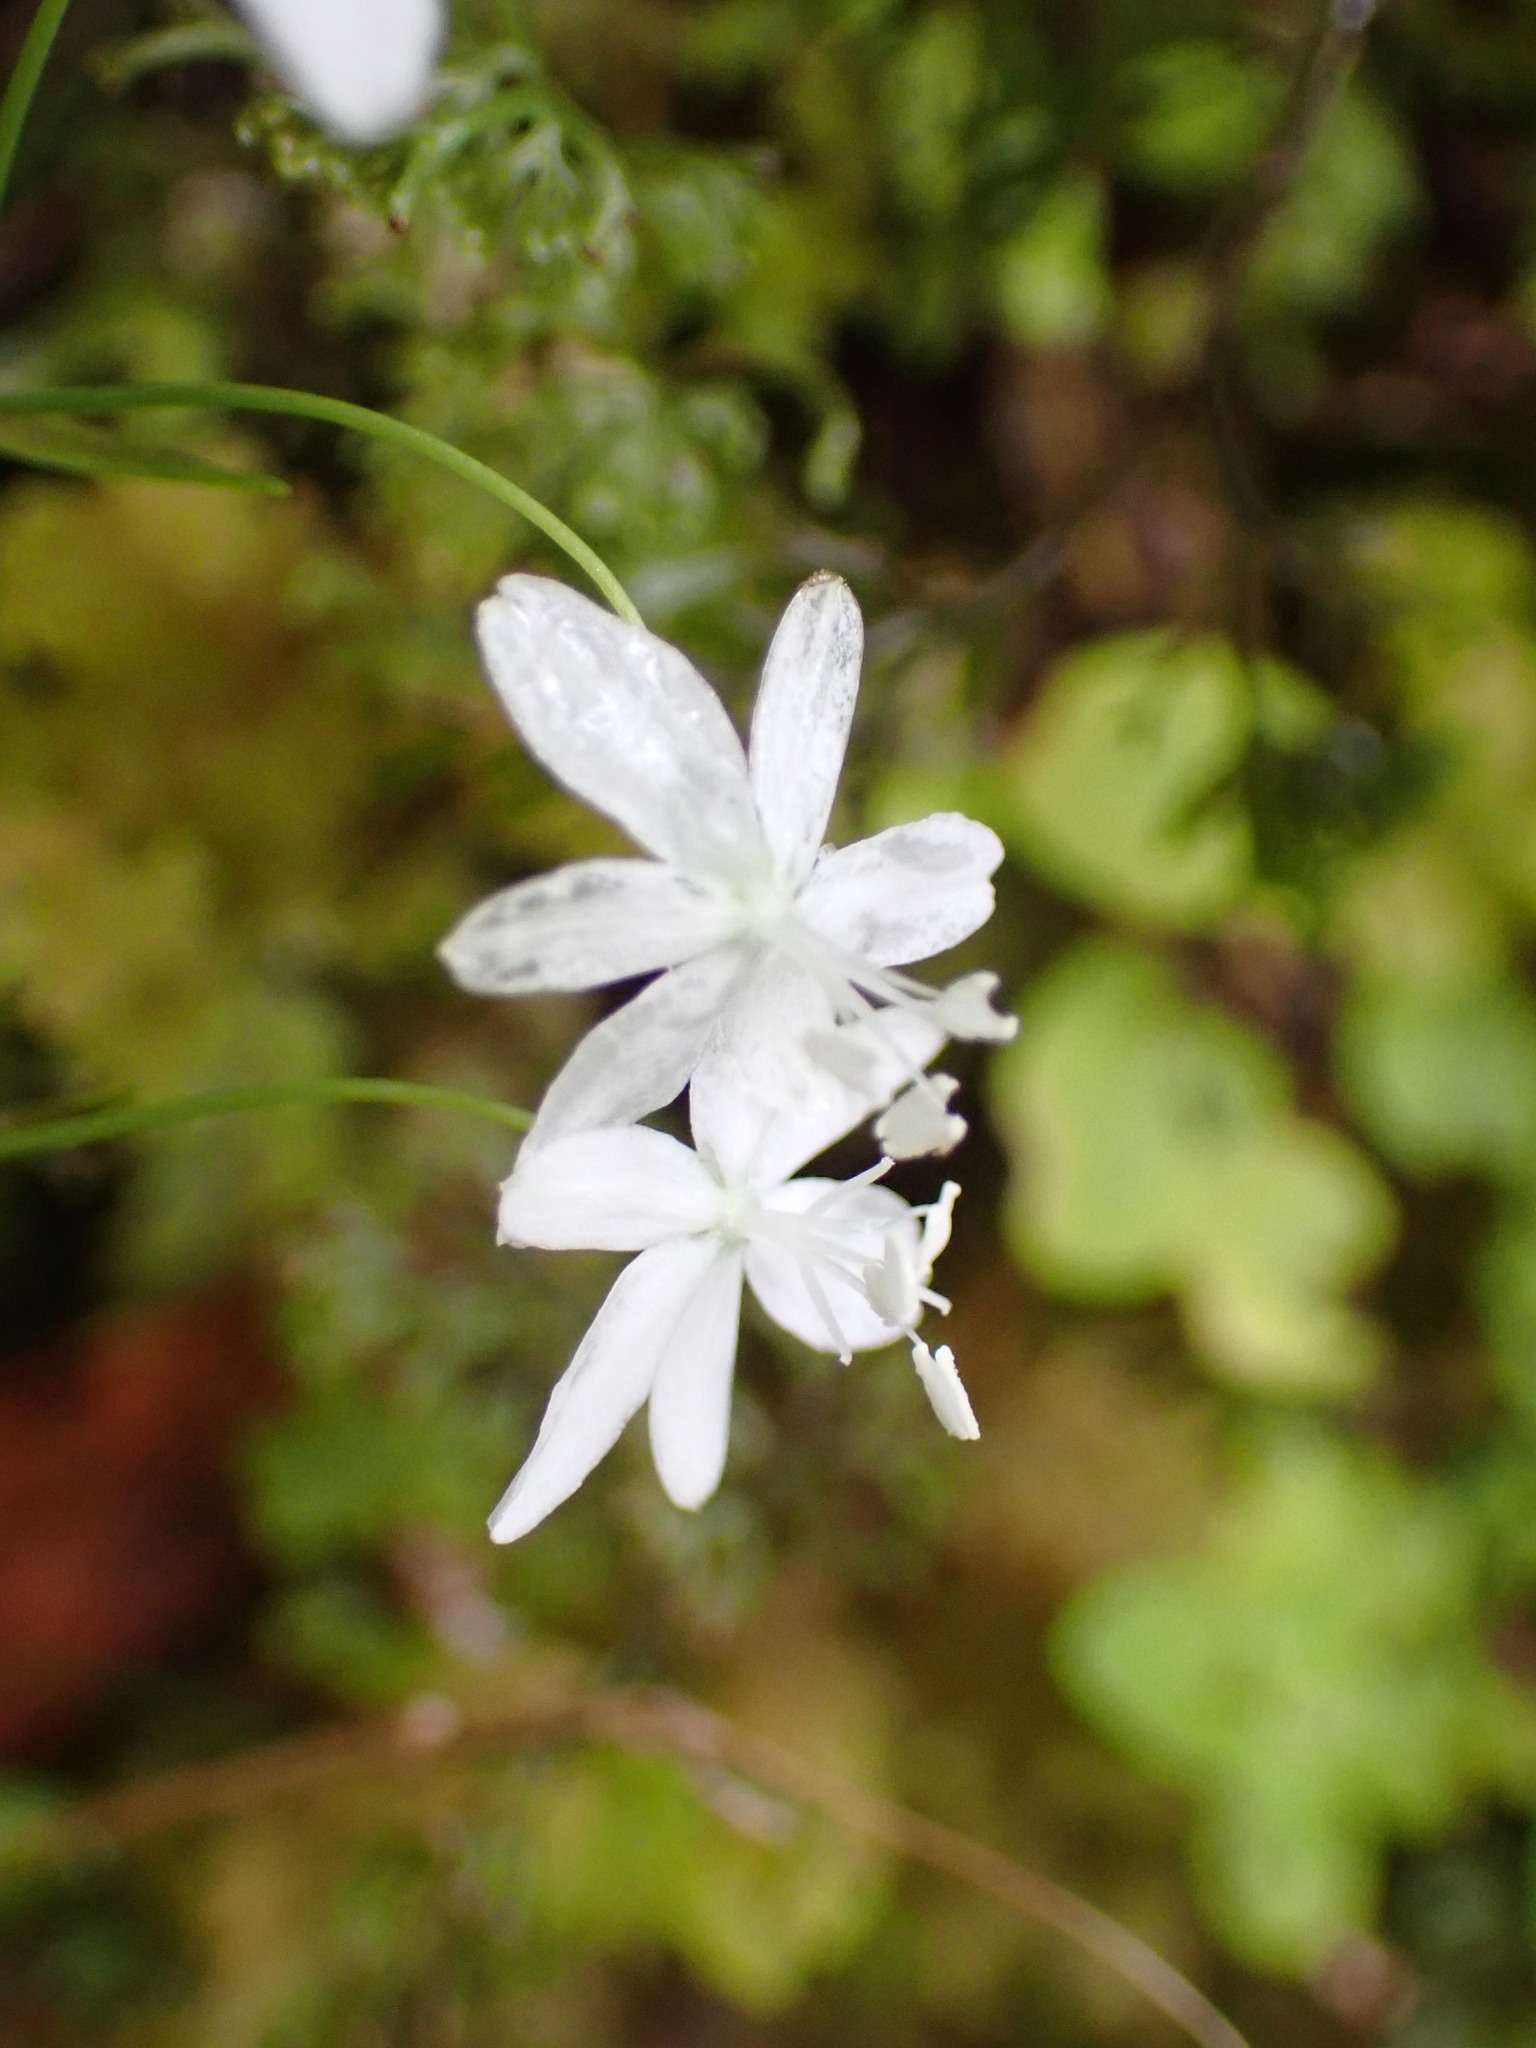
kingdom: Plantae
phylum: Tracheophyta
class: Liliopsida
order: Asparagales
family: Iridaceae
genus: Libertia
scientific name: Libertia micrantha
